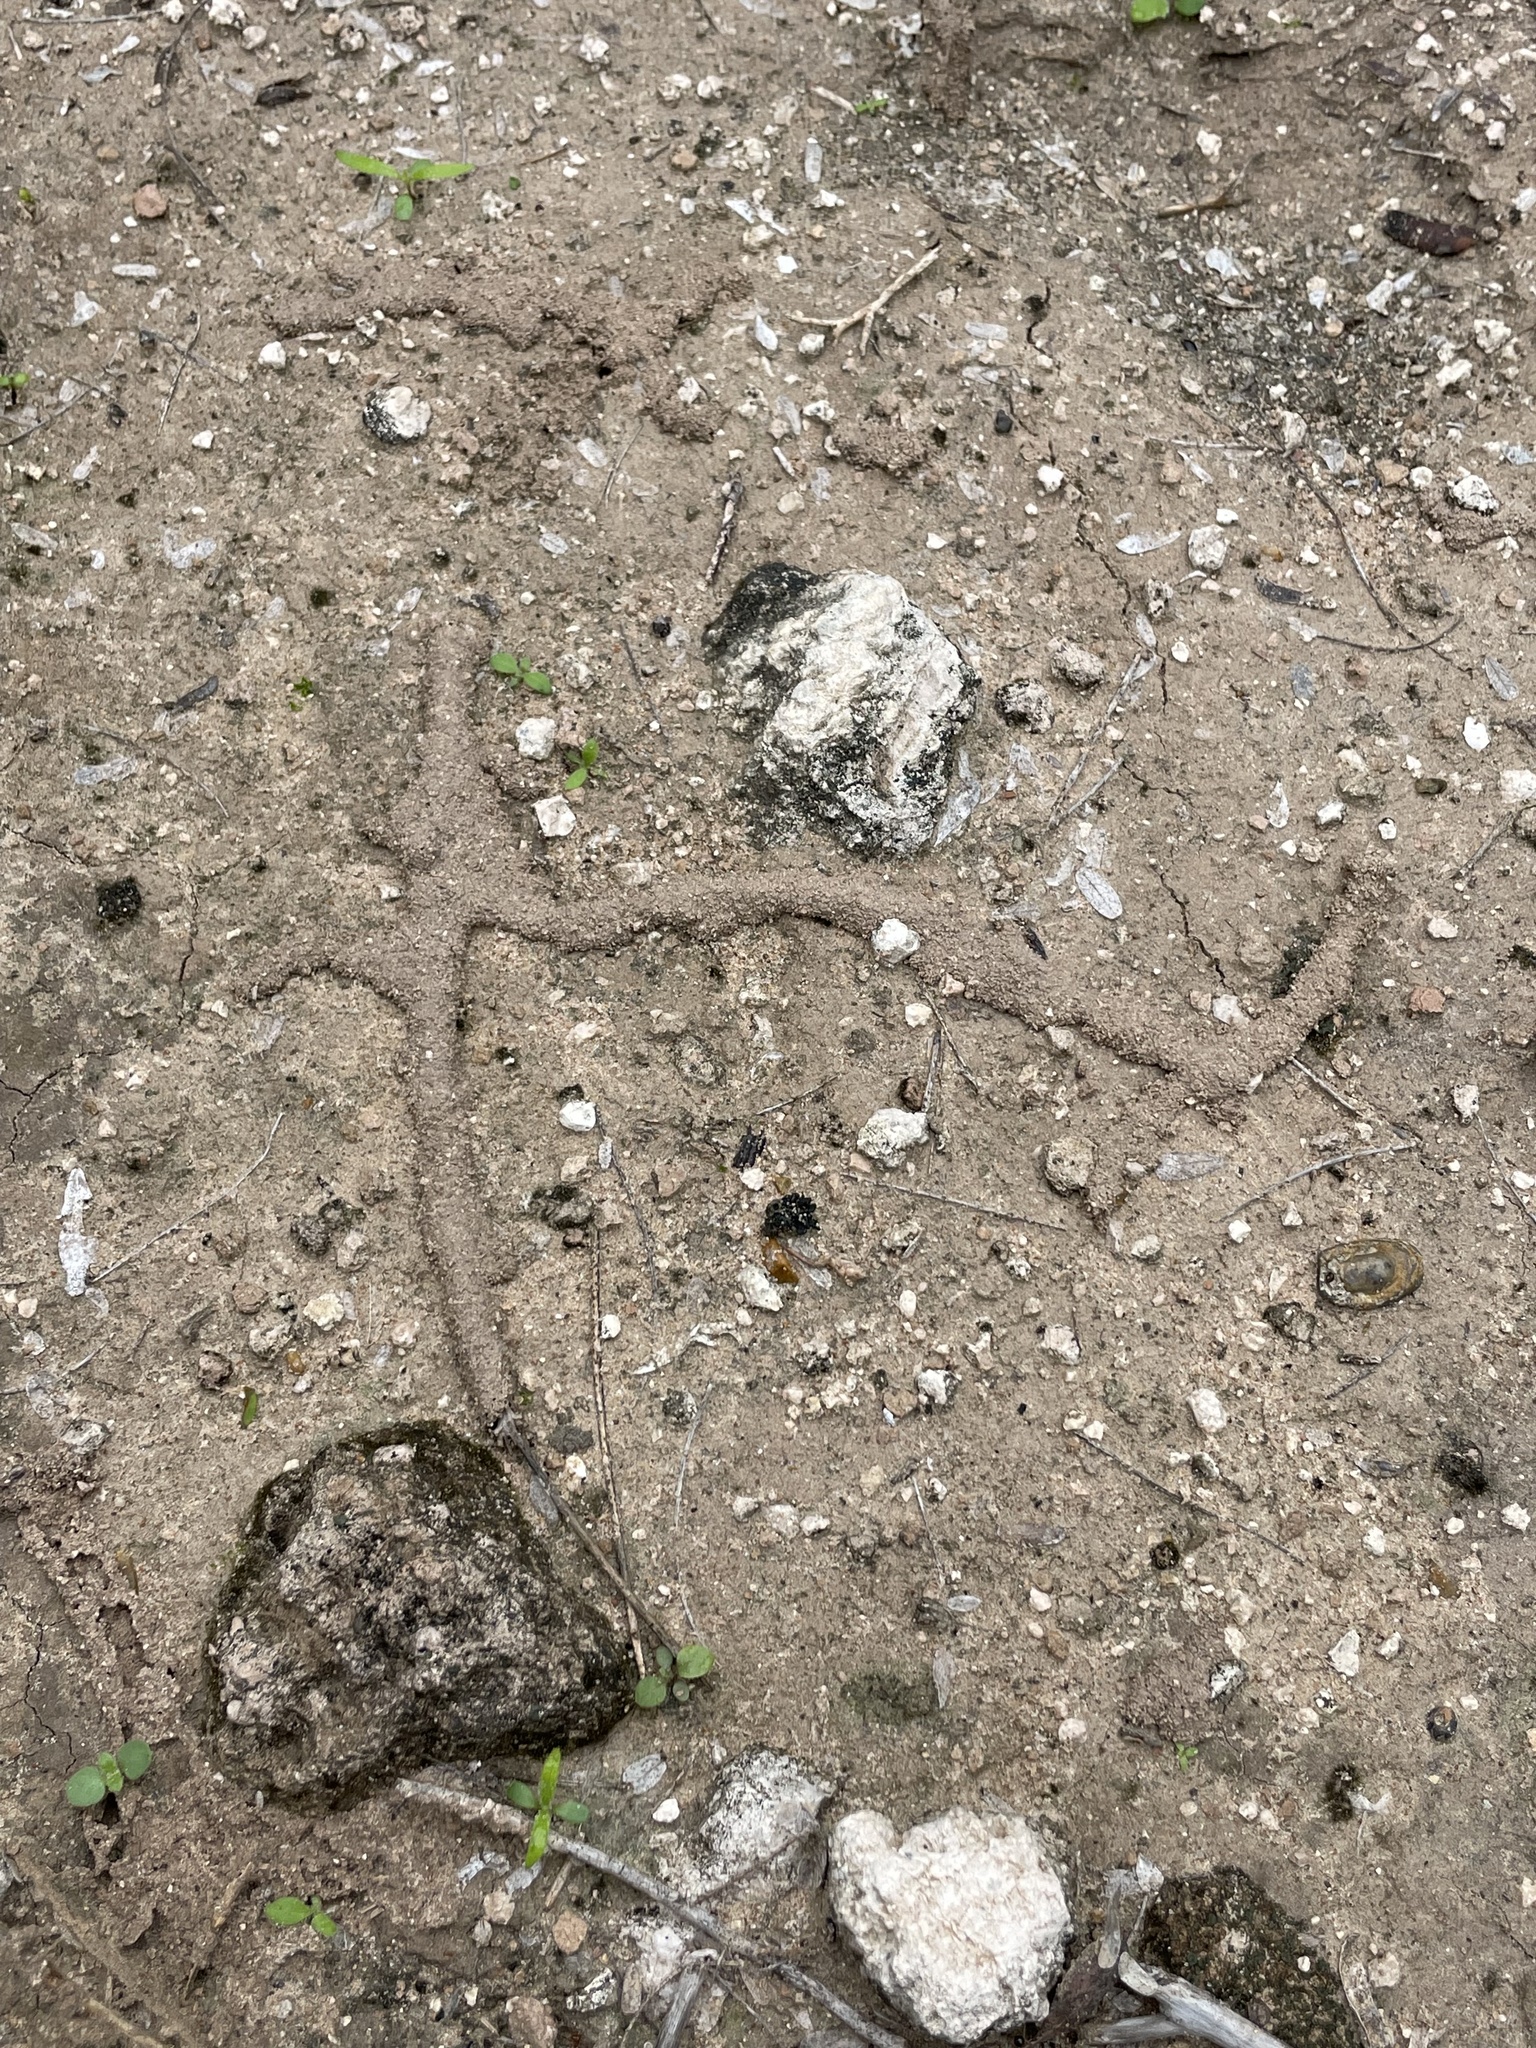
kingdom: Animalia
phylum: Arthropoda
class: Insecta
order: Blattodea
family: Termitidae
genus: Gnathamitermes
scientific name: Gnathamitermes
